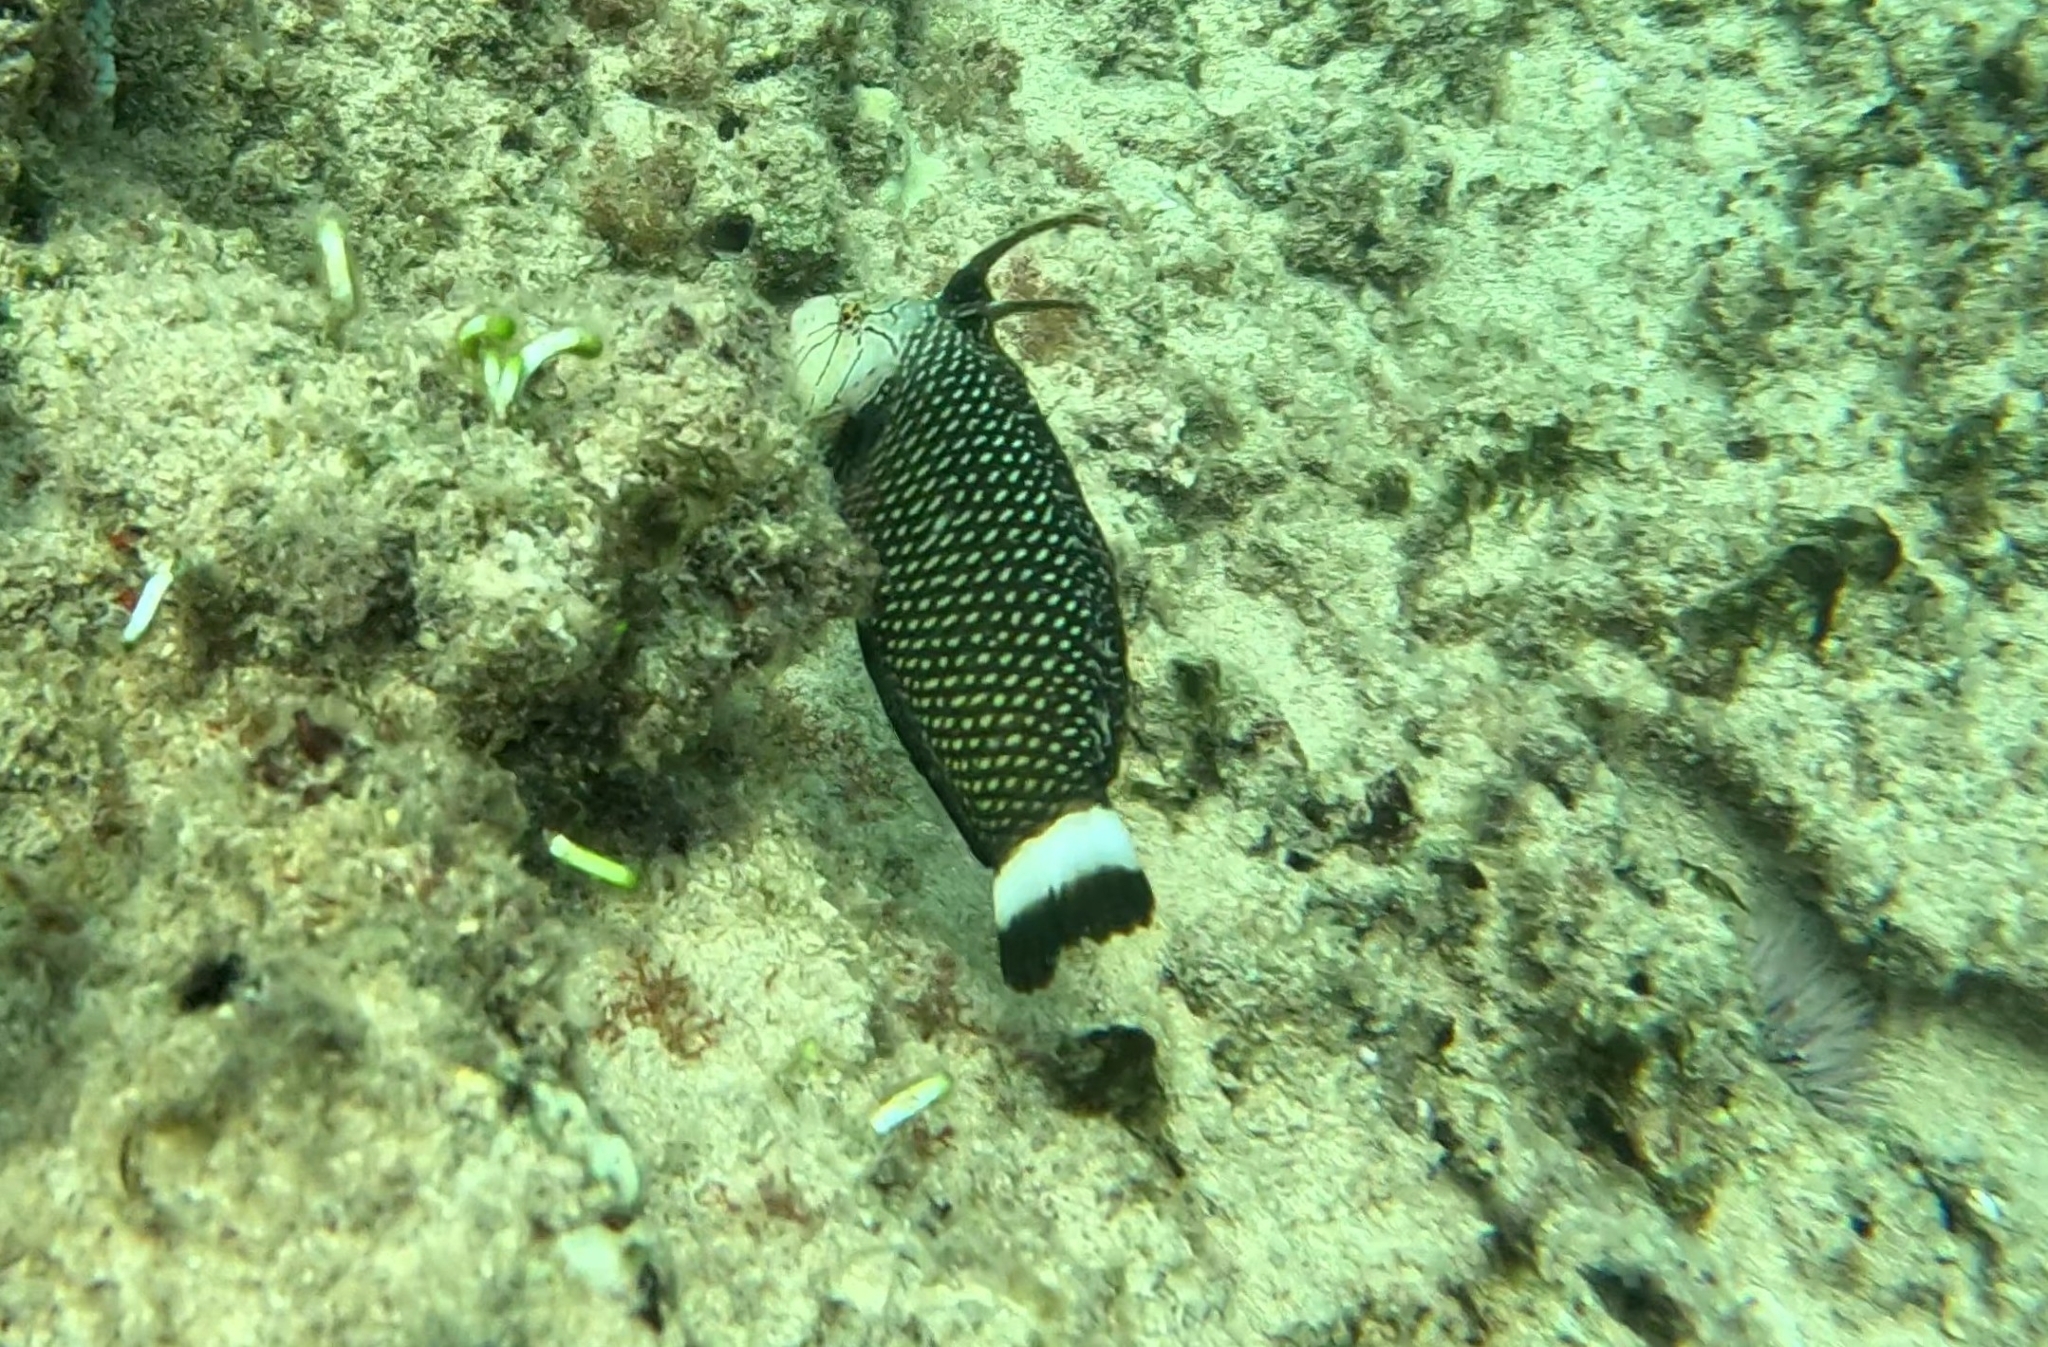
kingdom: Animalia
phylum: Chordata
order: Perciformes
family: Labridae
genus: Novaculichthys
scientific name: Novaculichthys taeniourus
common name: Rockmover wrasse
